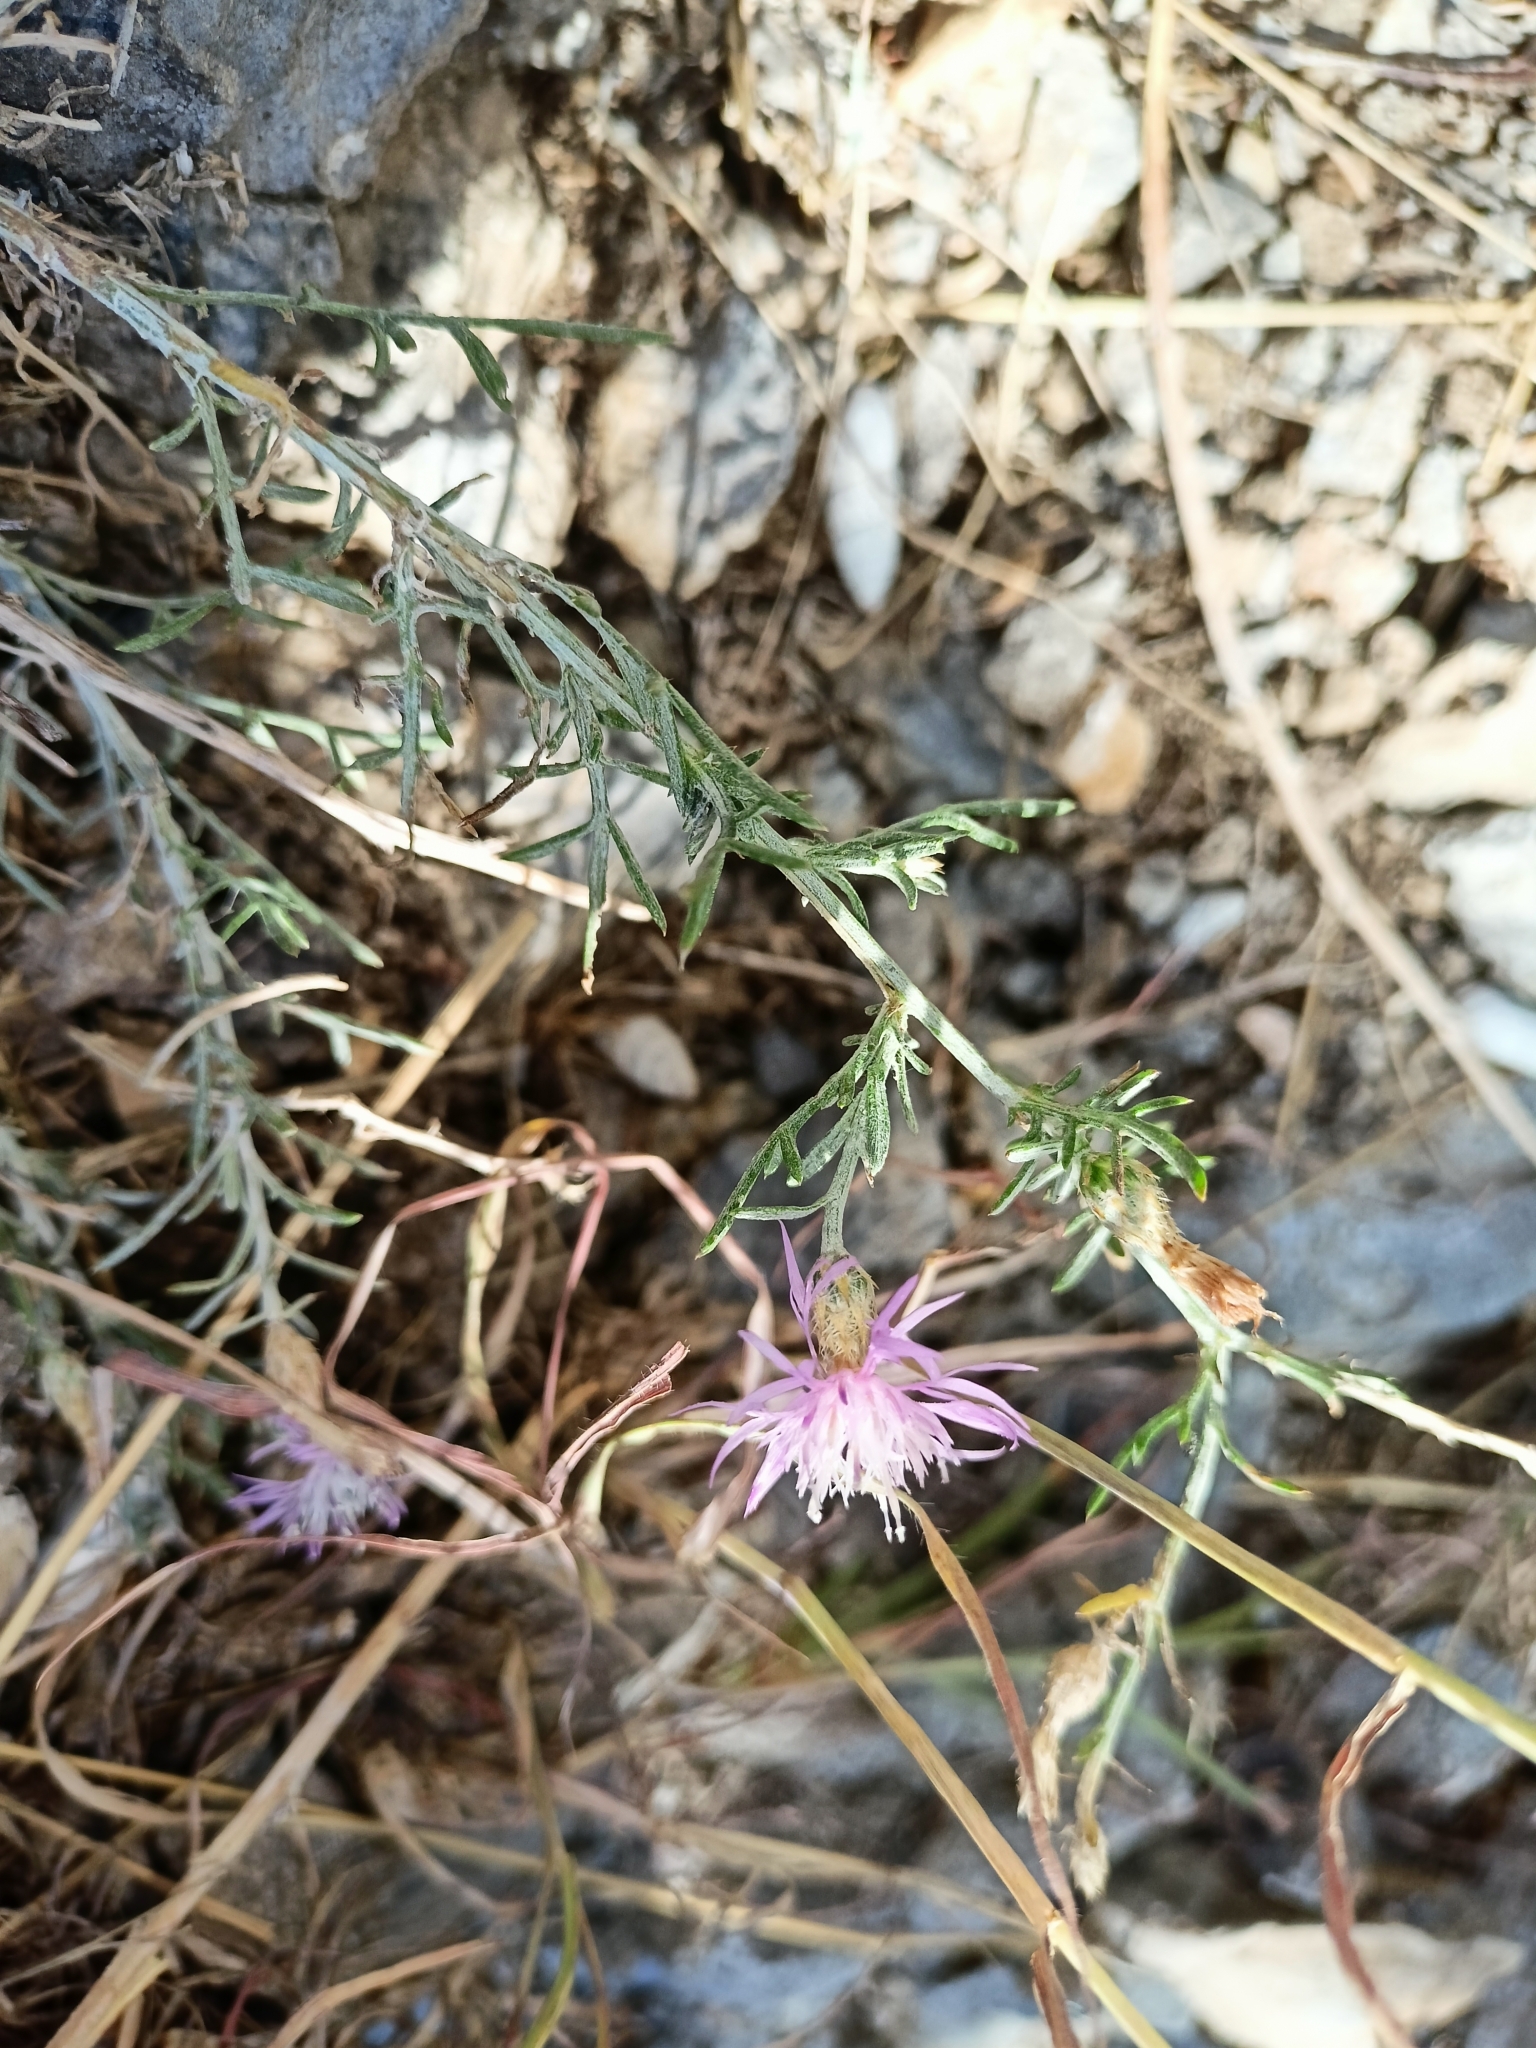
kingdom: Plantae
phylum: Tracheophyta
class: Magnoliopsida
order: Asterales
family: Asteraceae
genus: Centaurea
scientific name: Centaurea caprina
